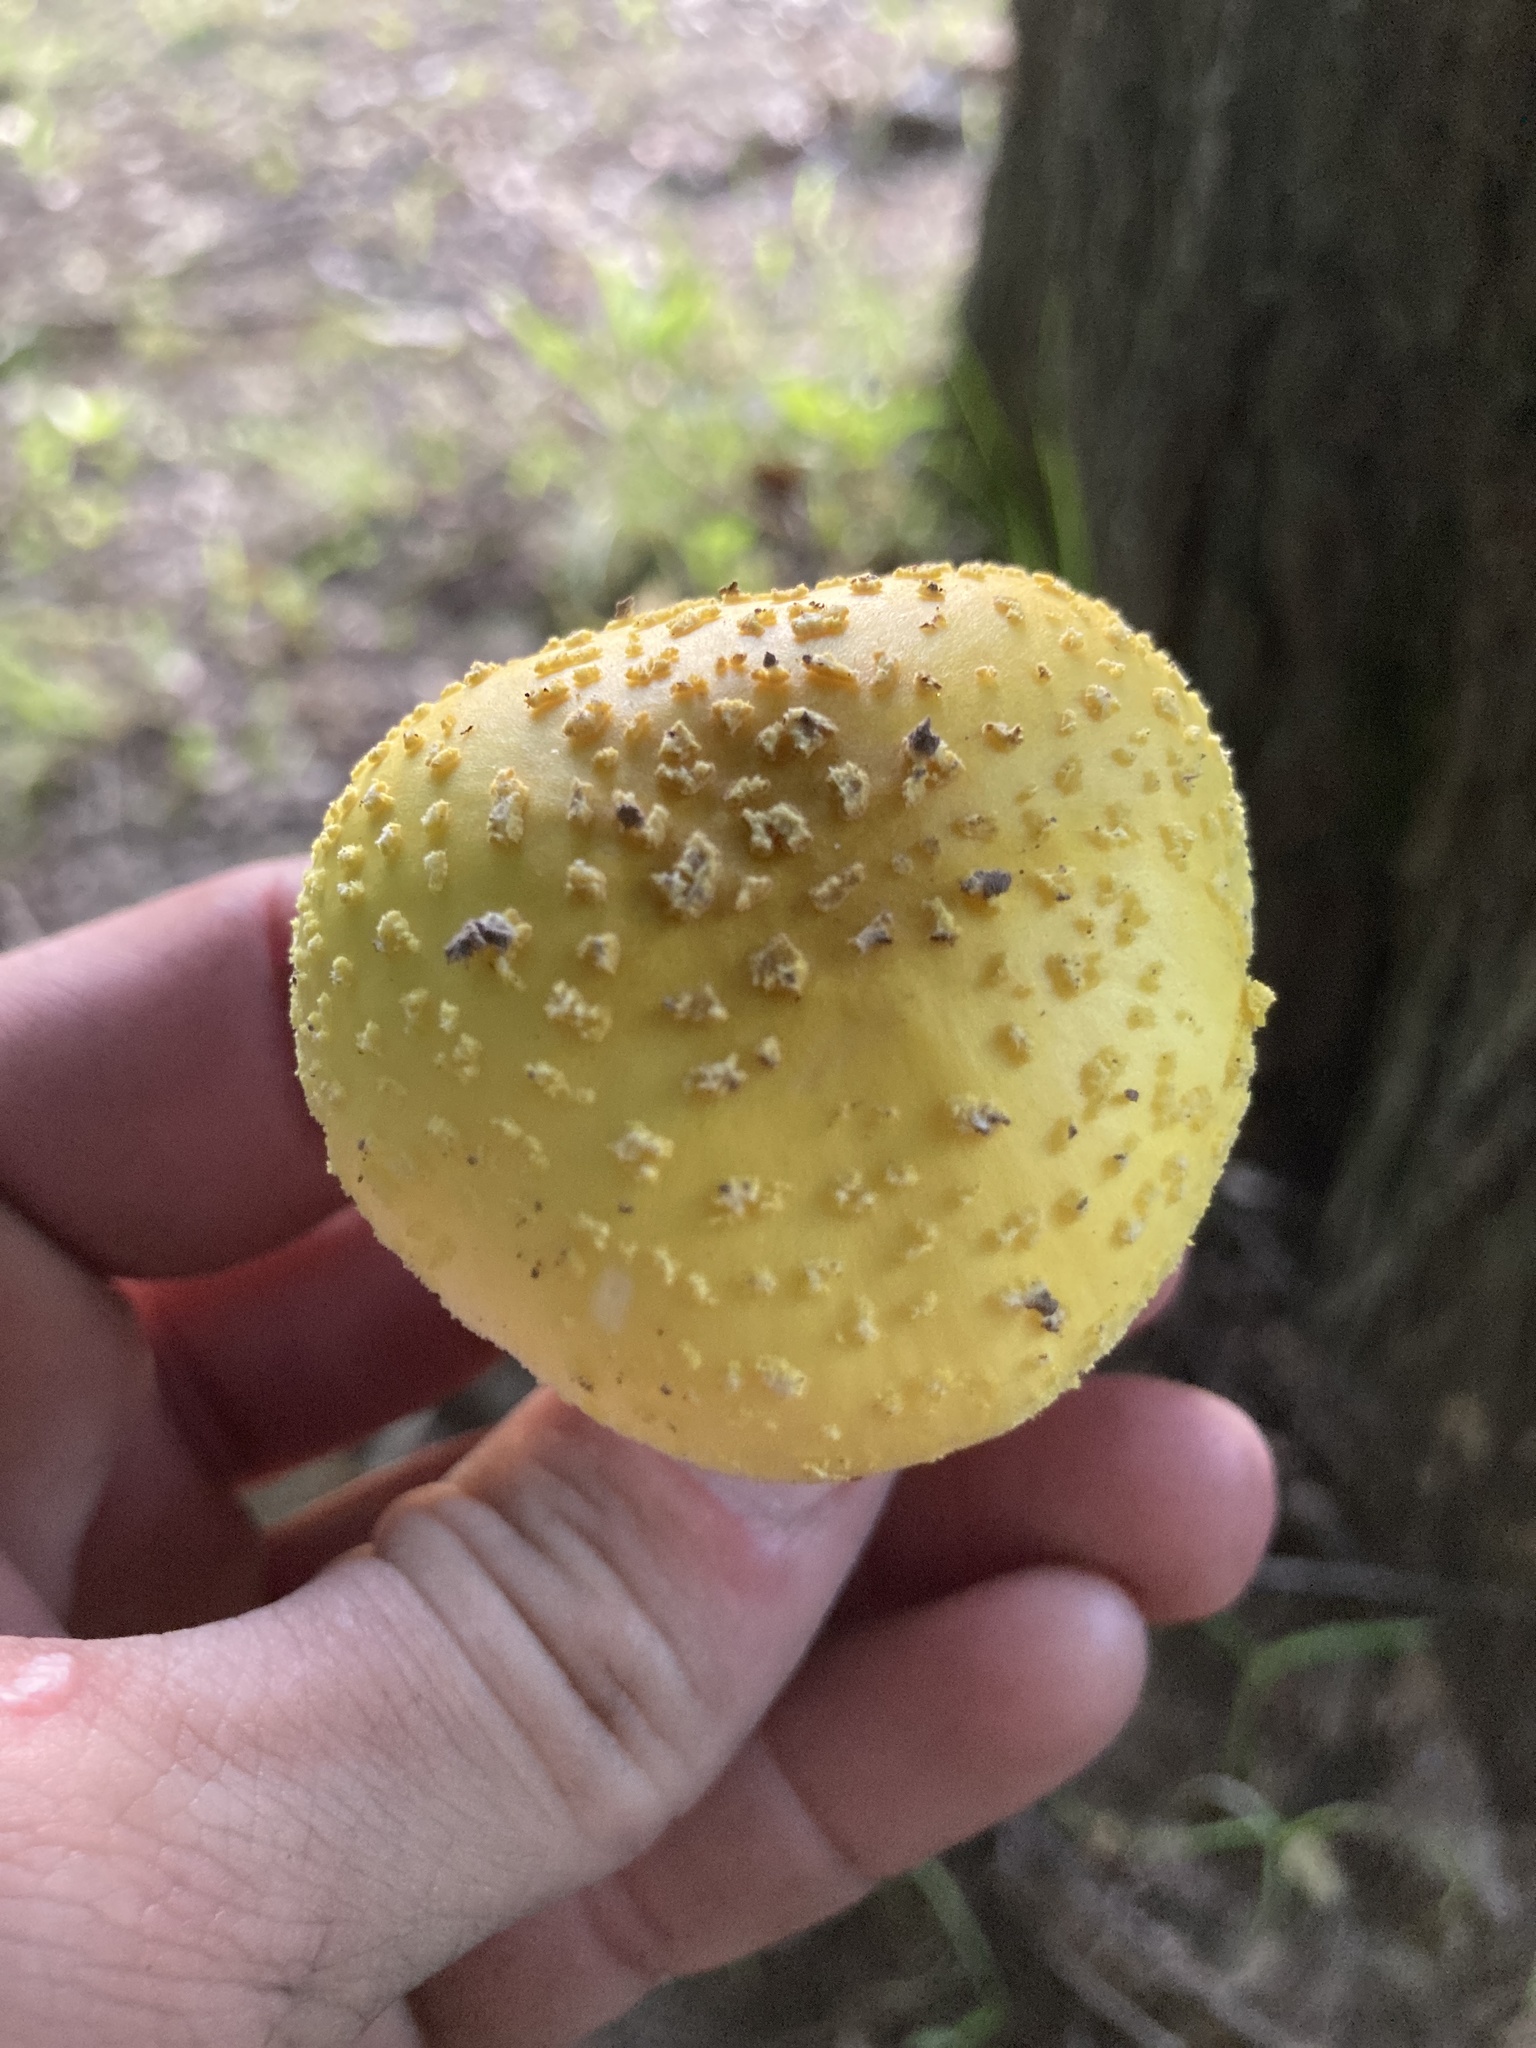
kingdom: Fungi
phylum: Basidiomycota
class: Agaricomycetes
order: Agaricales
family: Amanitaceae
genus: Amanita
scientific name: Amanita flavorubens
